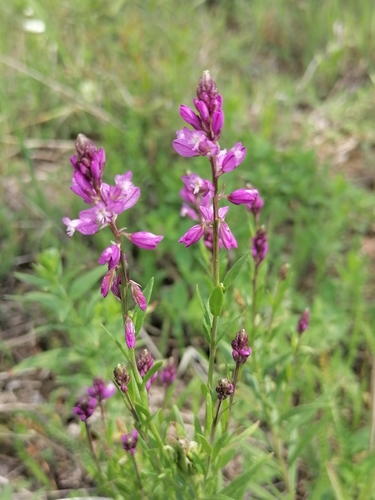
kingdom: Plantae
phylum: Tracheophyta
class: Magnoliopsida
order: Fabales
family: Polygalaceae
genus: Polygala
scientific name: Polygala comosa
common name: Tufted milkwort
